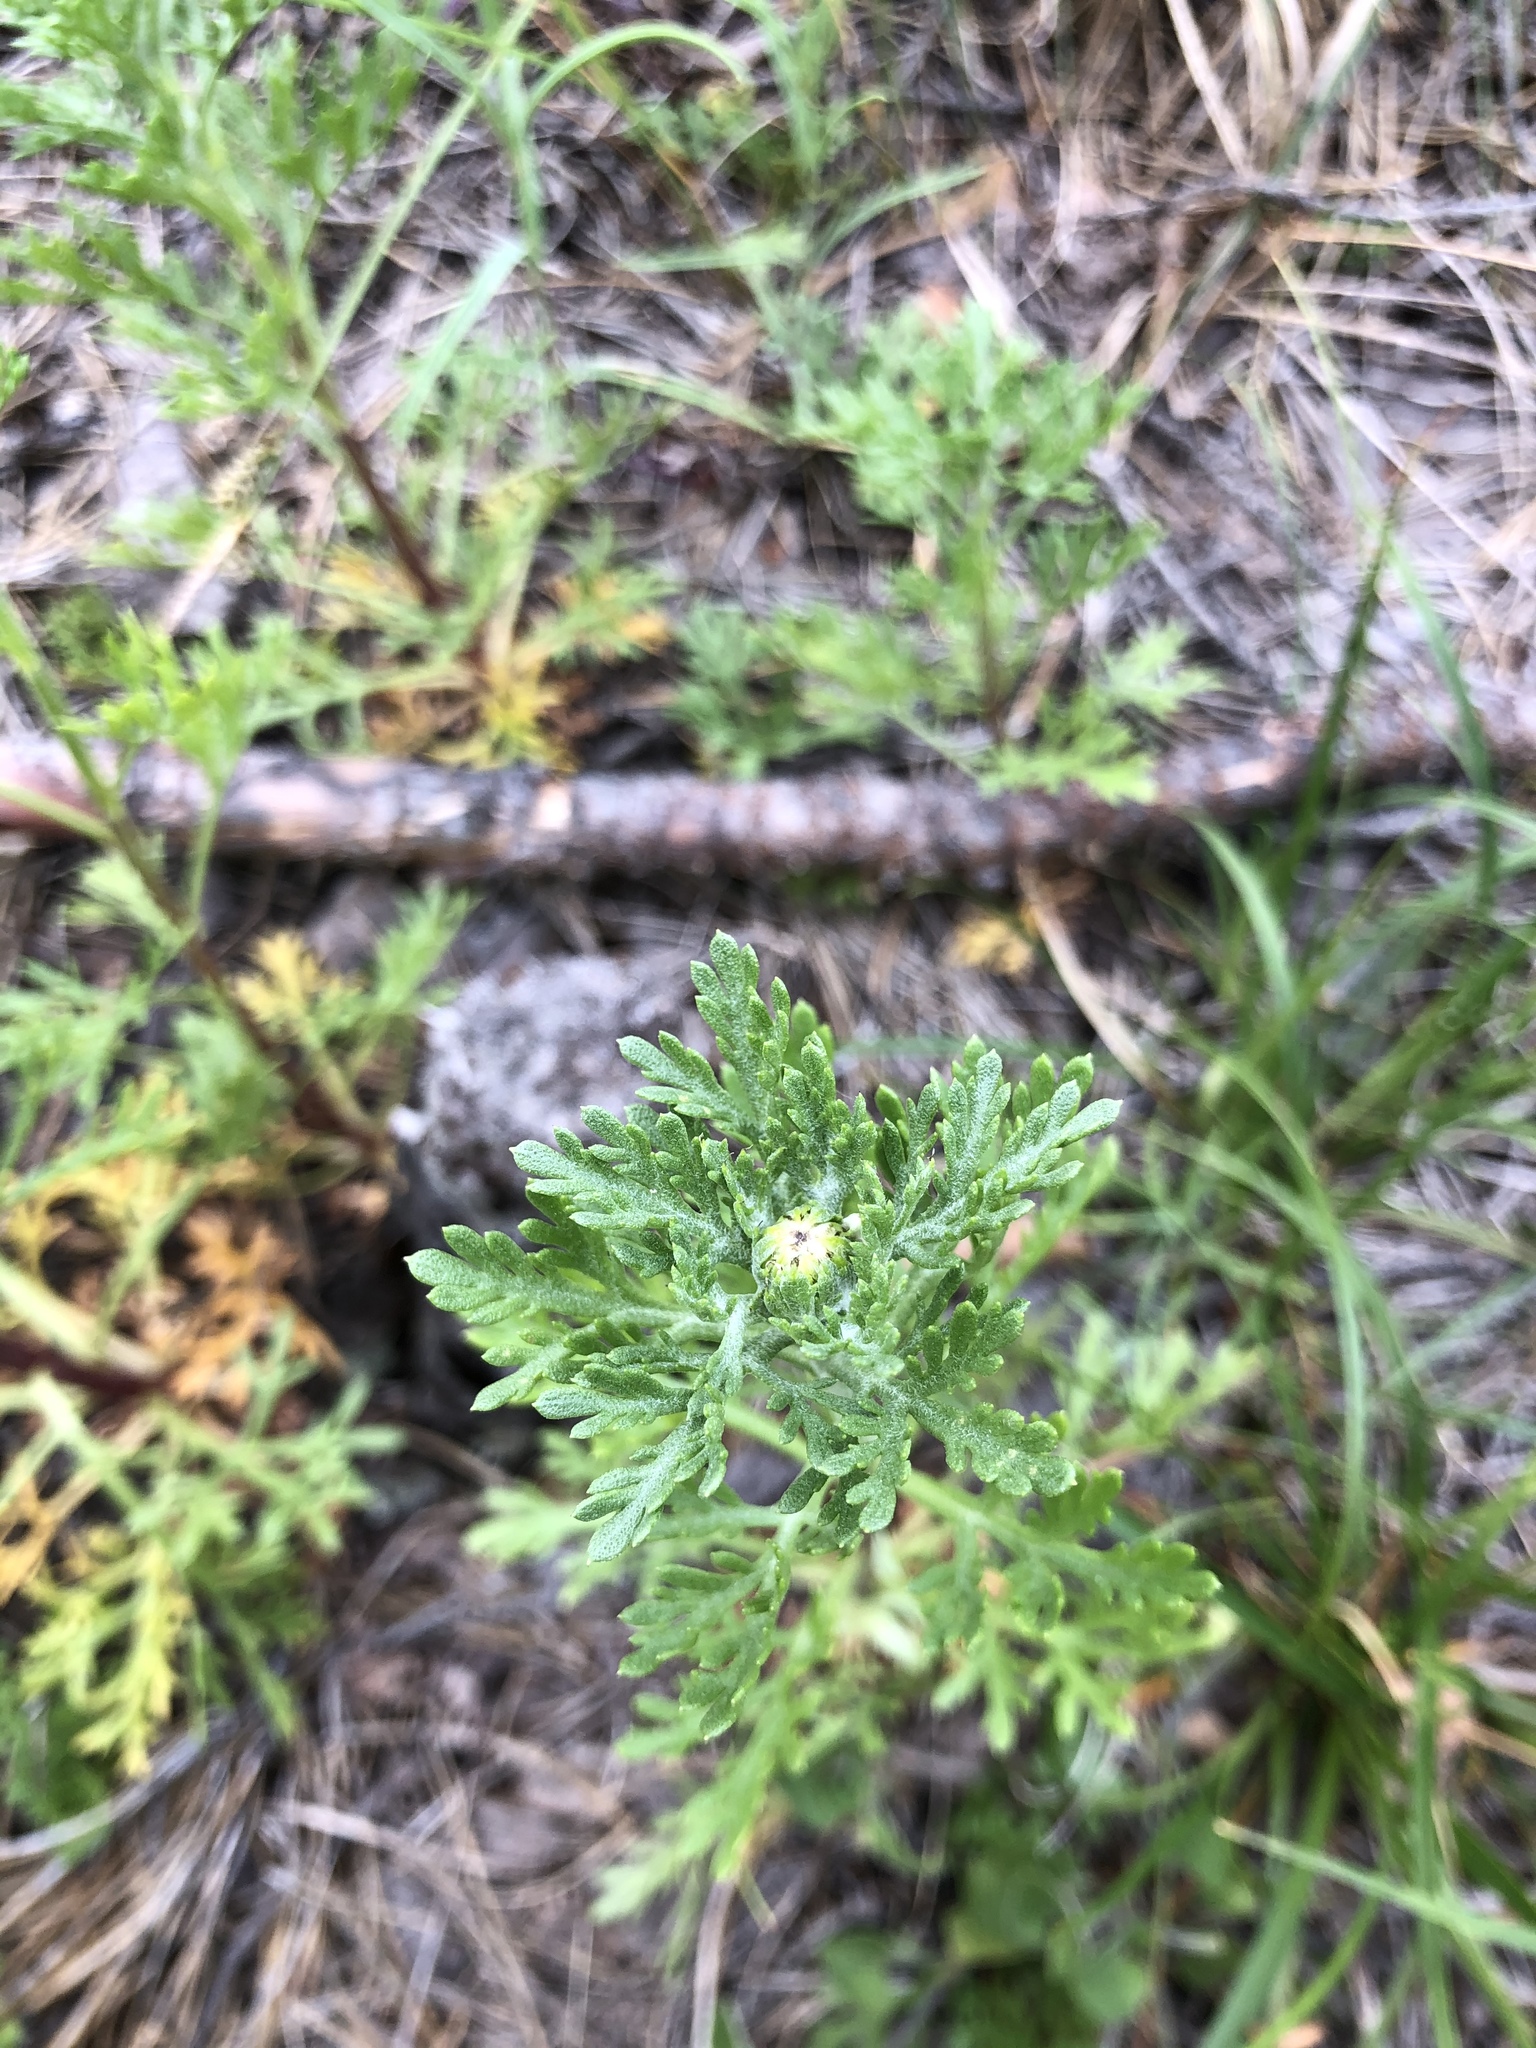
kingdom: Plantae
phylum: Tracheophyta
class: Magnoliopsida
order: Asterales
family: Asteraceae
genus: Chrysanthemum
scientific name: Chrysanthemum zawadzkii
